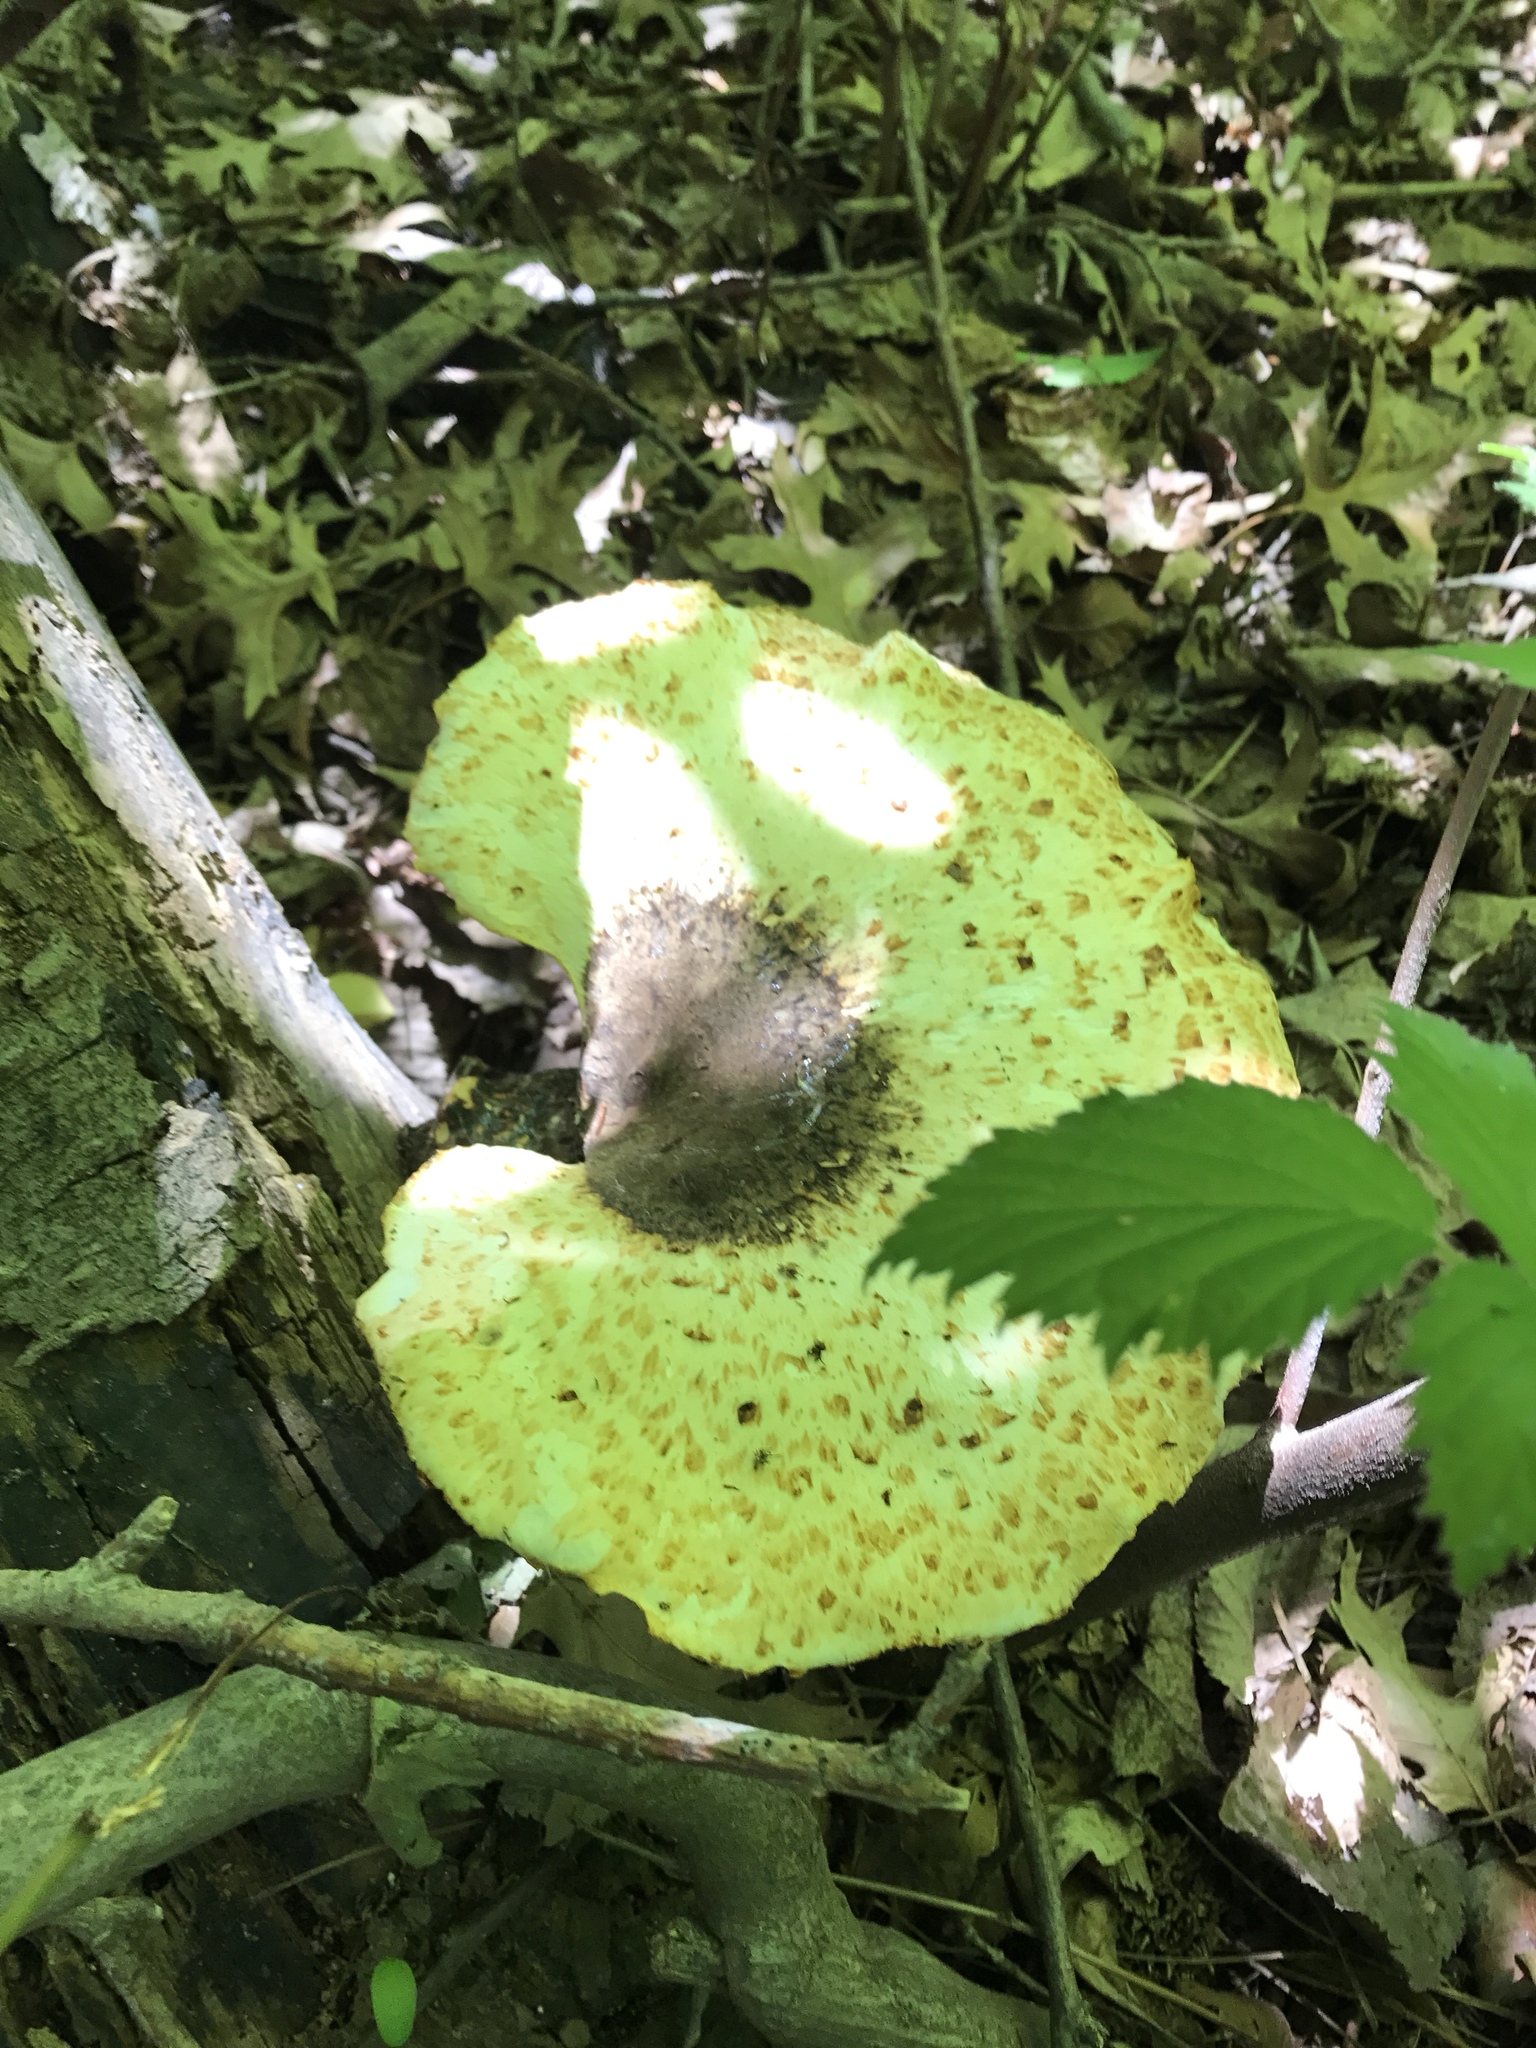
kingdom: Fungi
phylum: Basidiomycota
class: Agaricomycetes
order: Polyporales
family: Polyporaceae
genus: Cerioporus
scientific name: Cerioporus squamosus
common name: Dryad's saddle
